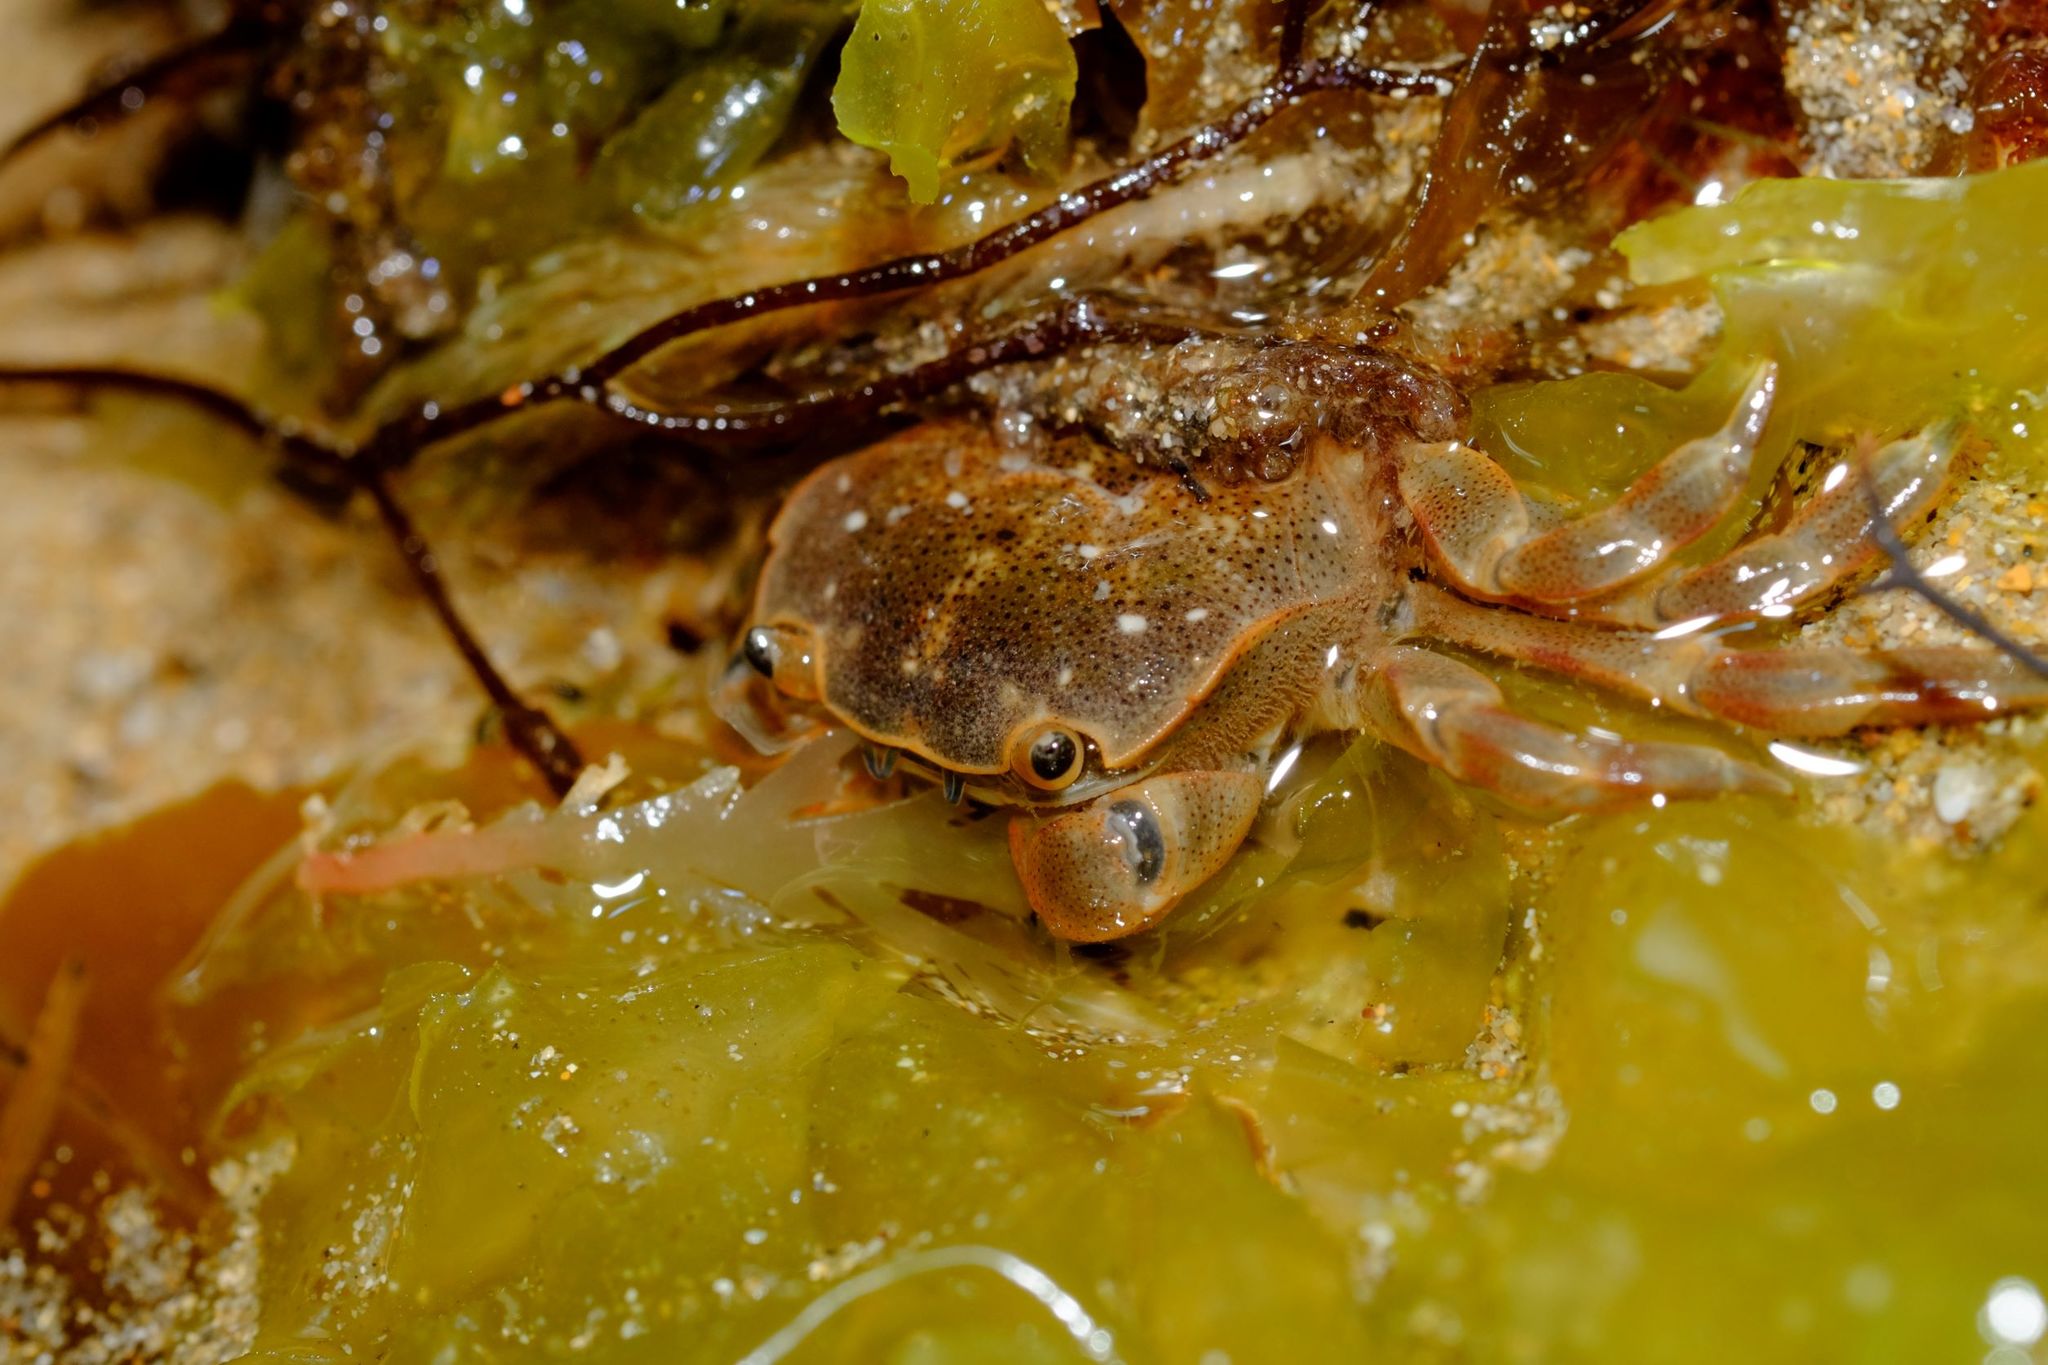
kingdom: Animalia
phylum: Arthropoda
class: Malacostraca
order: Decapoda
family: Varunidae
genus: Paragrapsus
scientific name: Paragrapsus quadridentatus
